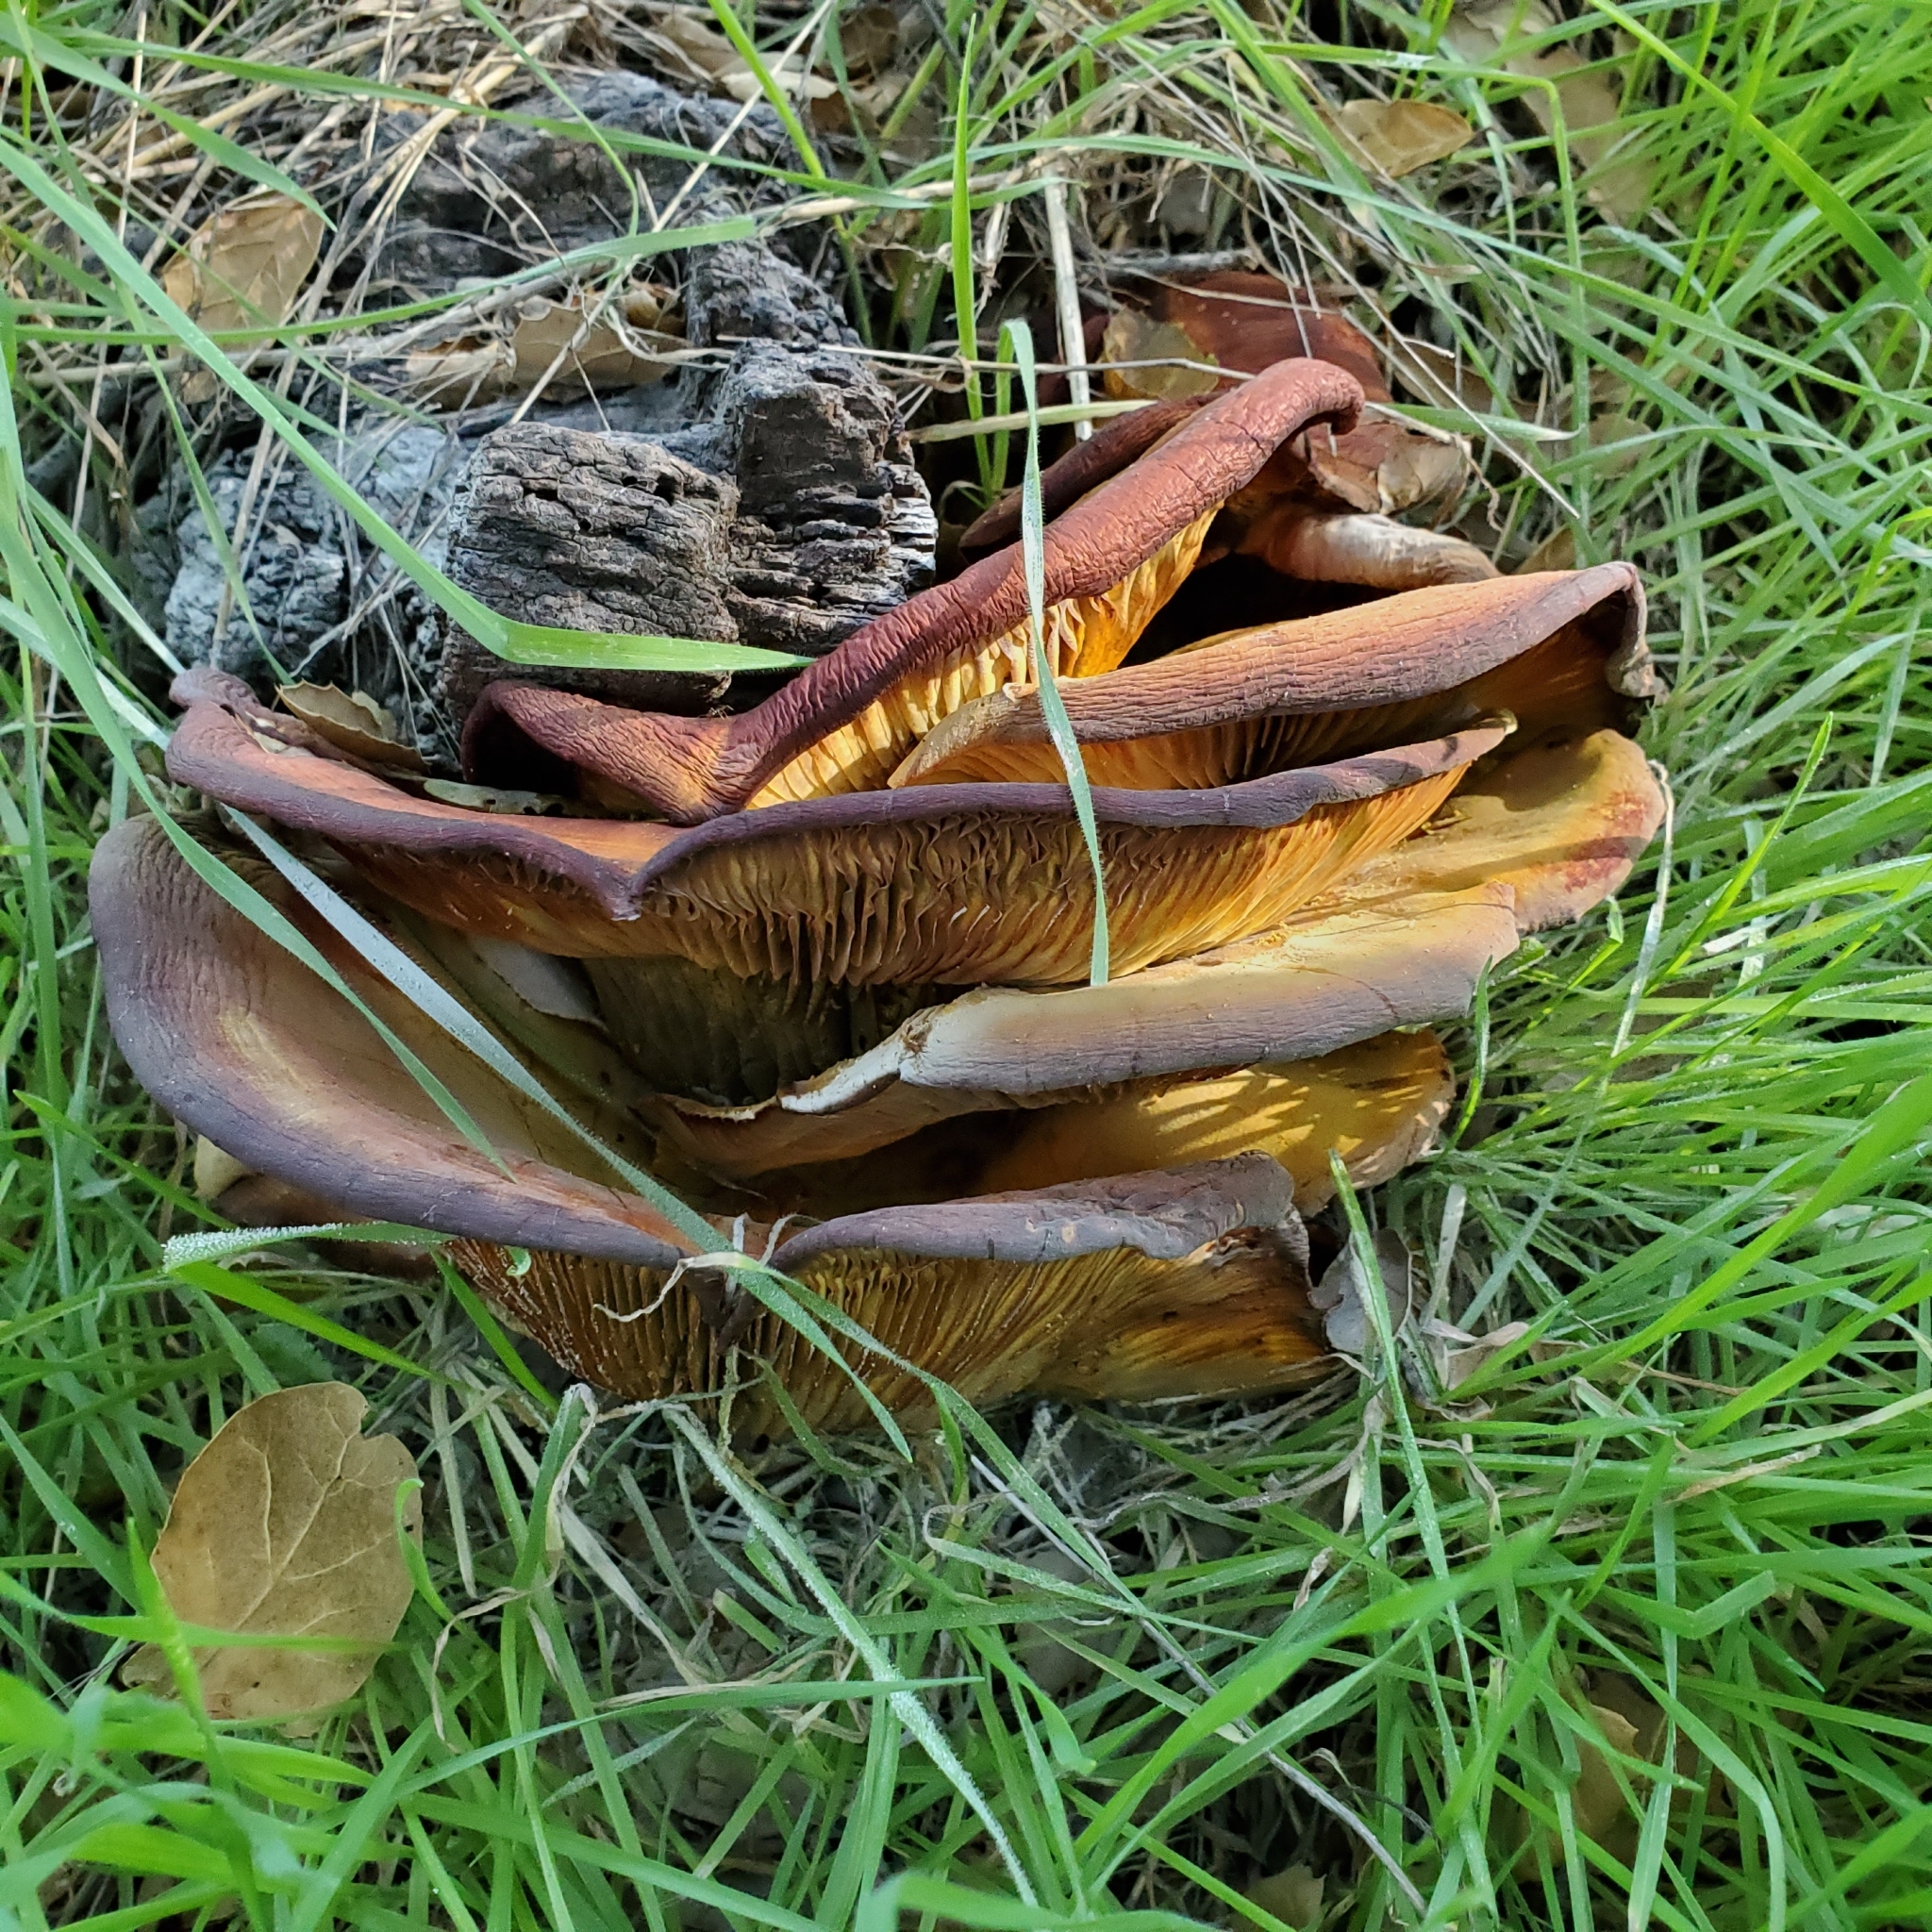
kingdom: Fungi
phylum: Basidiomycota
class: Agaricomycetes
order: Agaricales
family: Omphalotaceae
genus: Omphalotus
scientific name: Omphalotus olivascens
